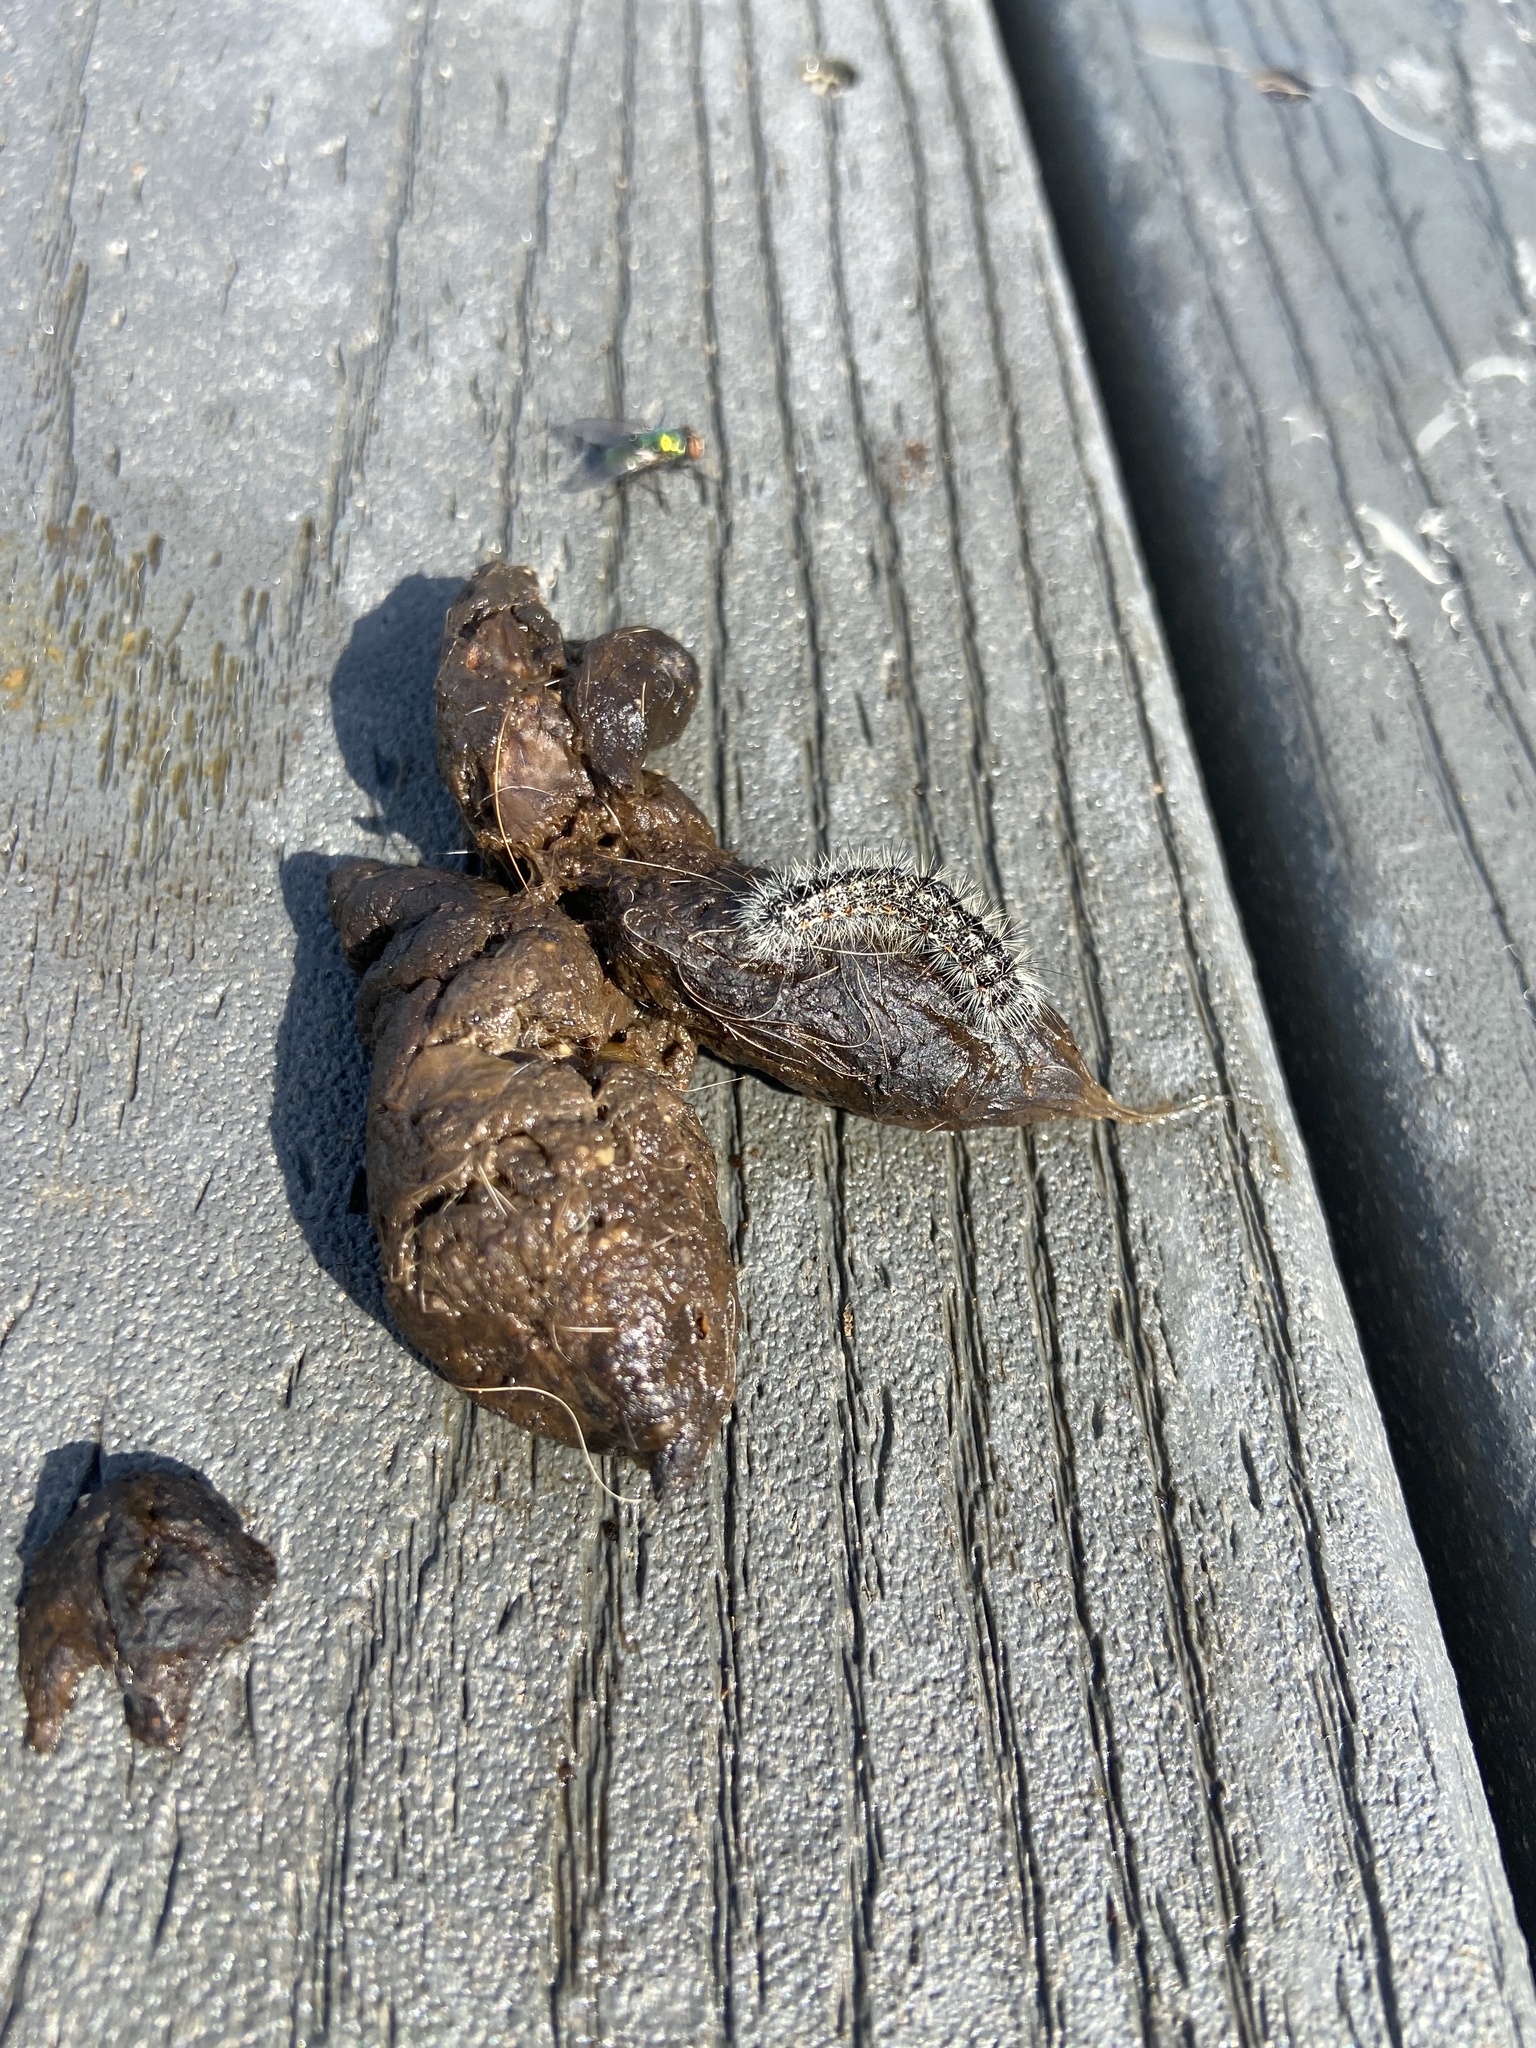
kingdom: Animalia
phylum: Arthropoda
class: Insecta
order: Lepidoptera
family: Noctuidae
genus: Acronicta
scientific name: Acronicta insularis
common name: Henry's marsh moth
